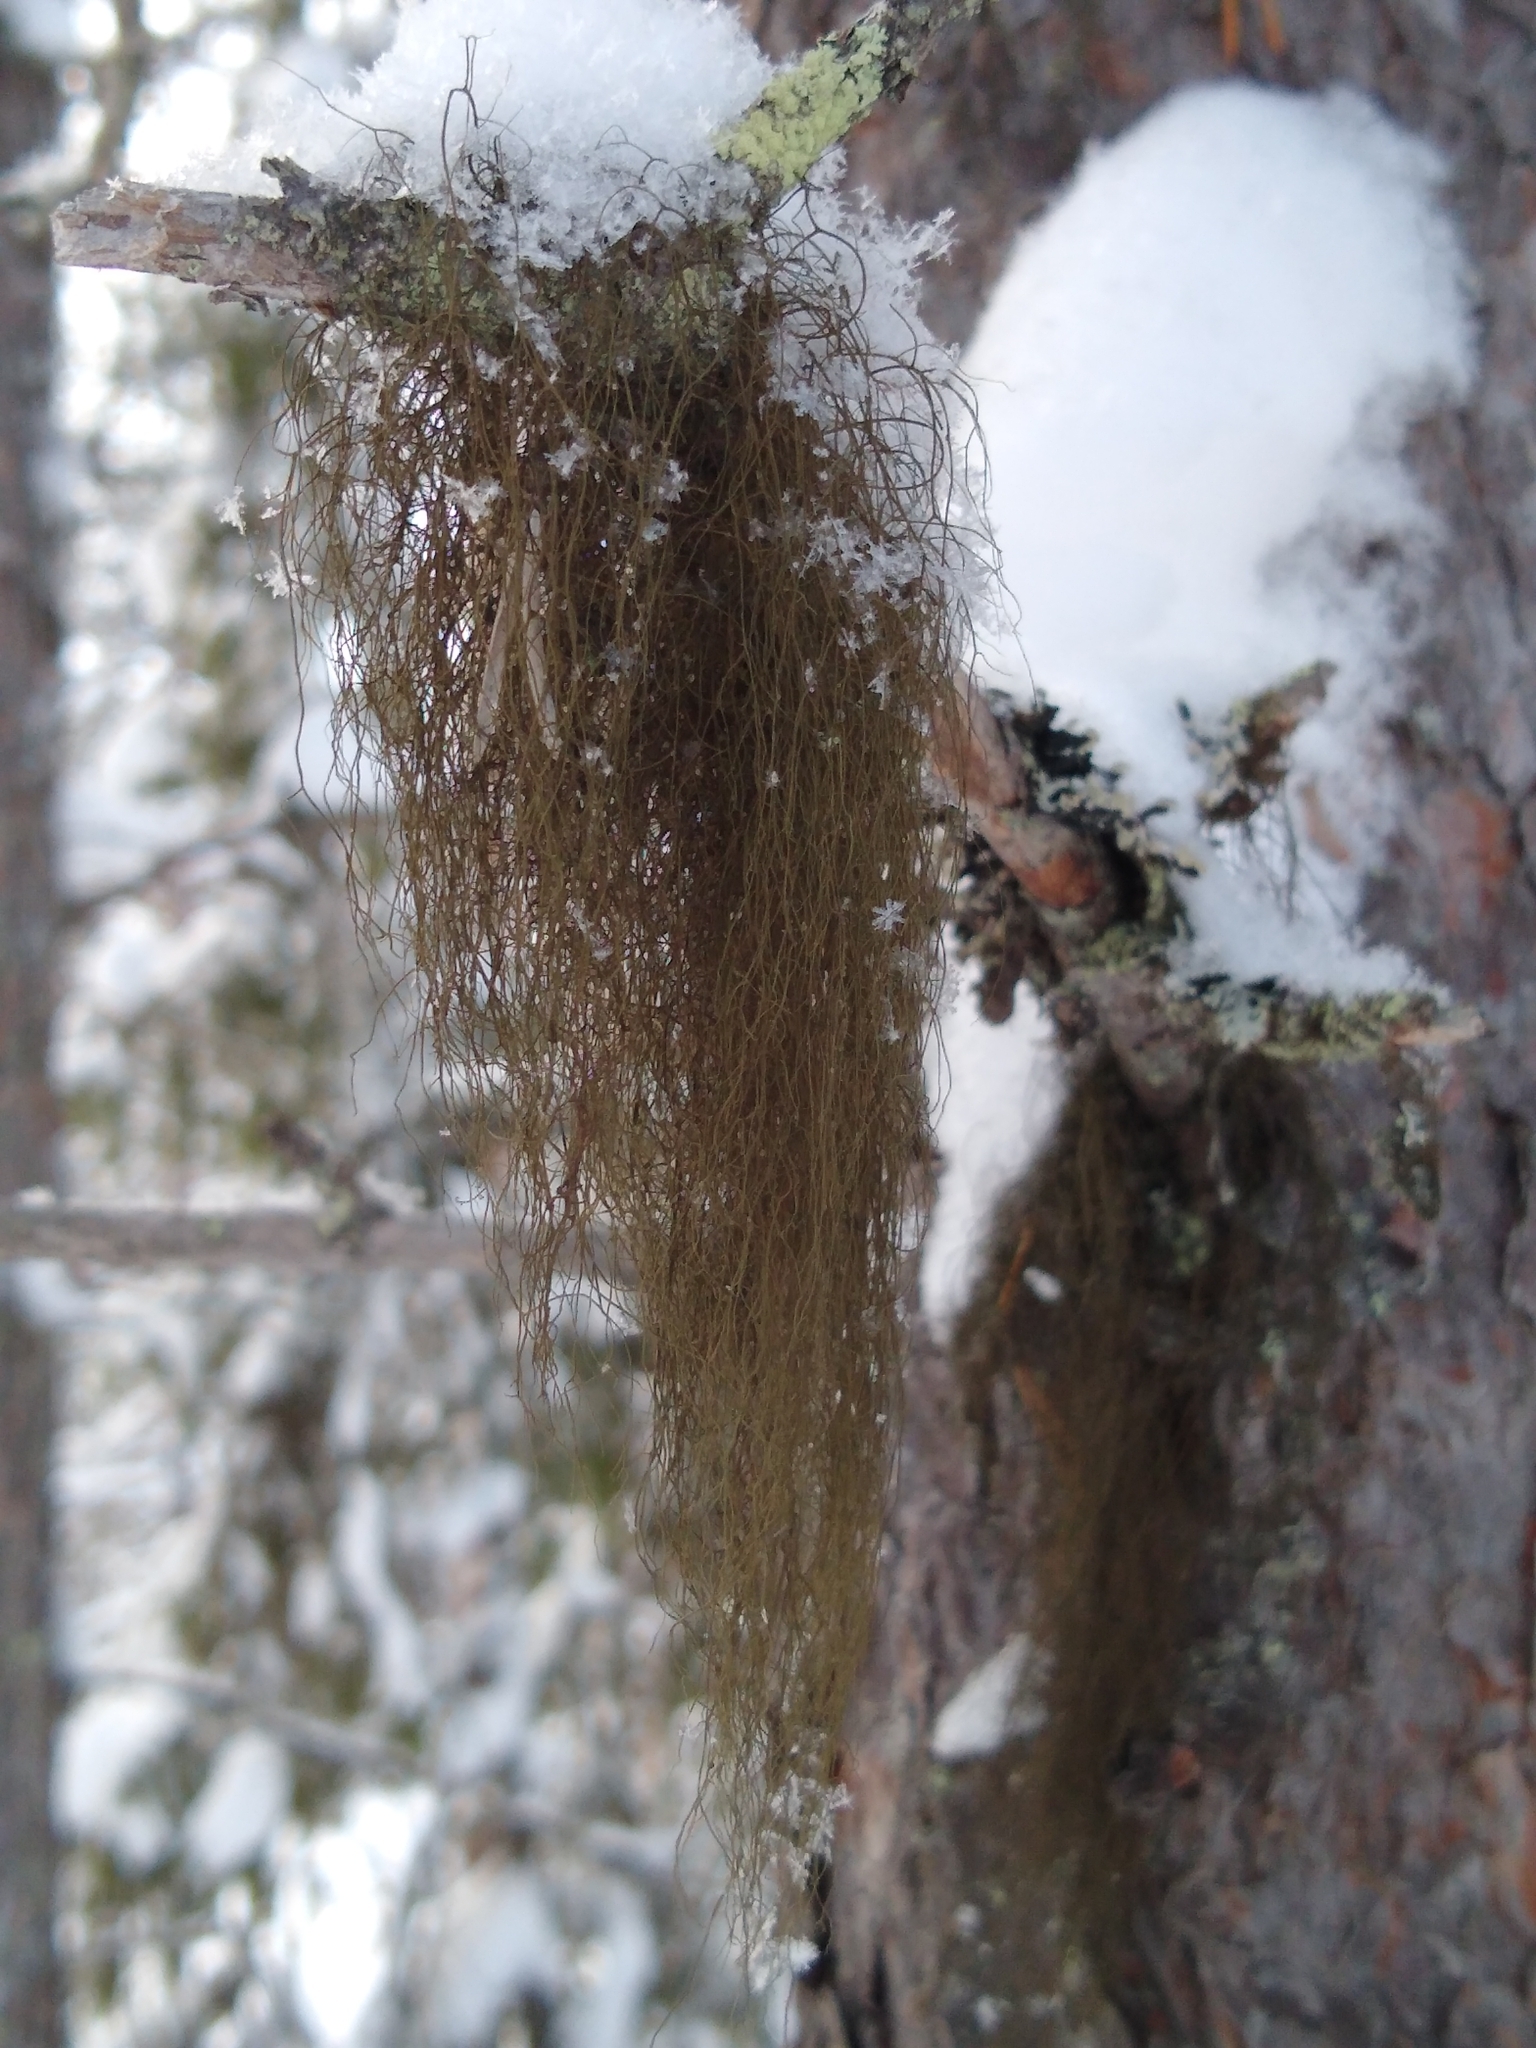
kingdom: Fungi
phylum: Ascomycota
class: Lecanoromycetes
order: Lecanorales
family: Parmeliaceae
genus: Bryoria
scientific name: Bryoria fuscescens
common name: Pale-footed horsehair lichen
